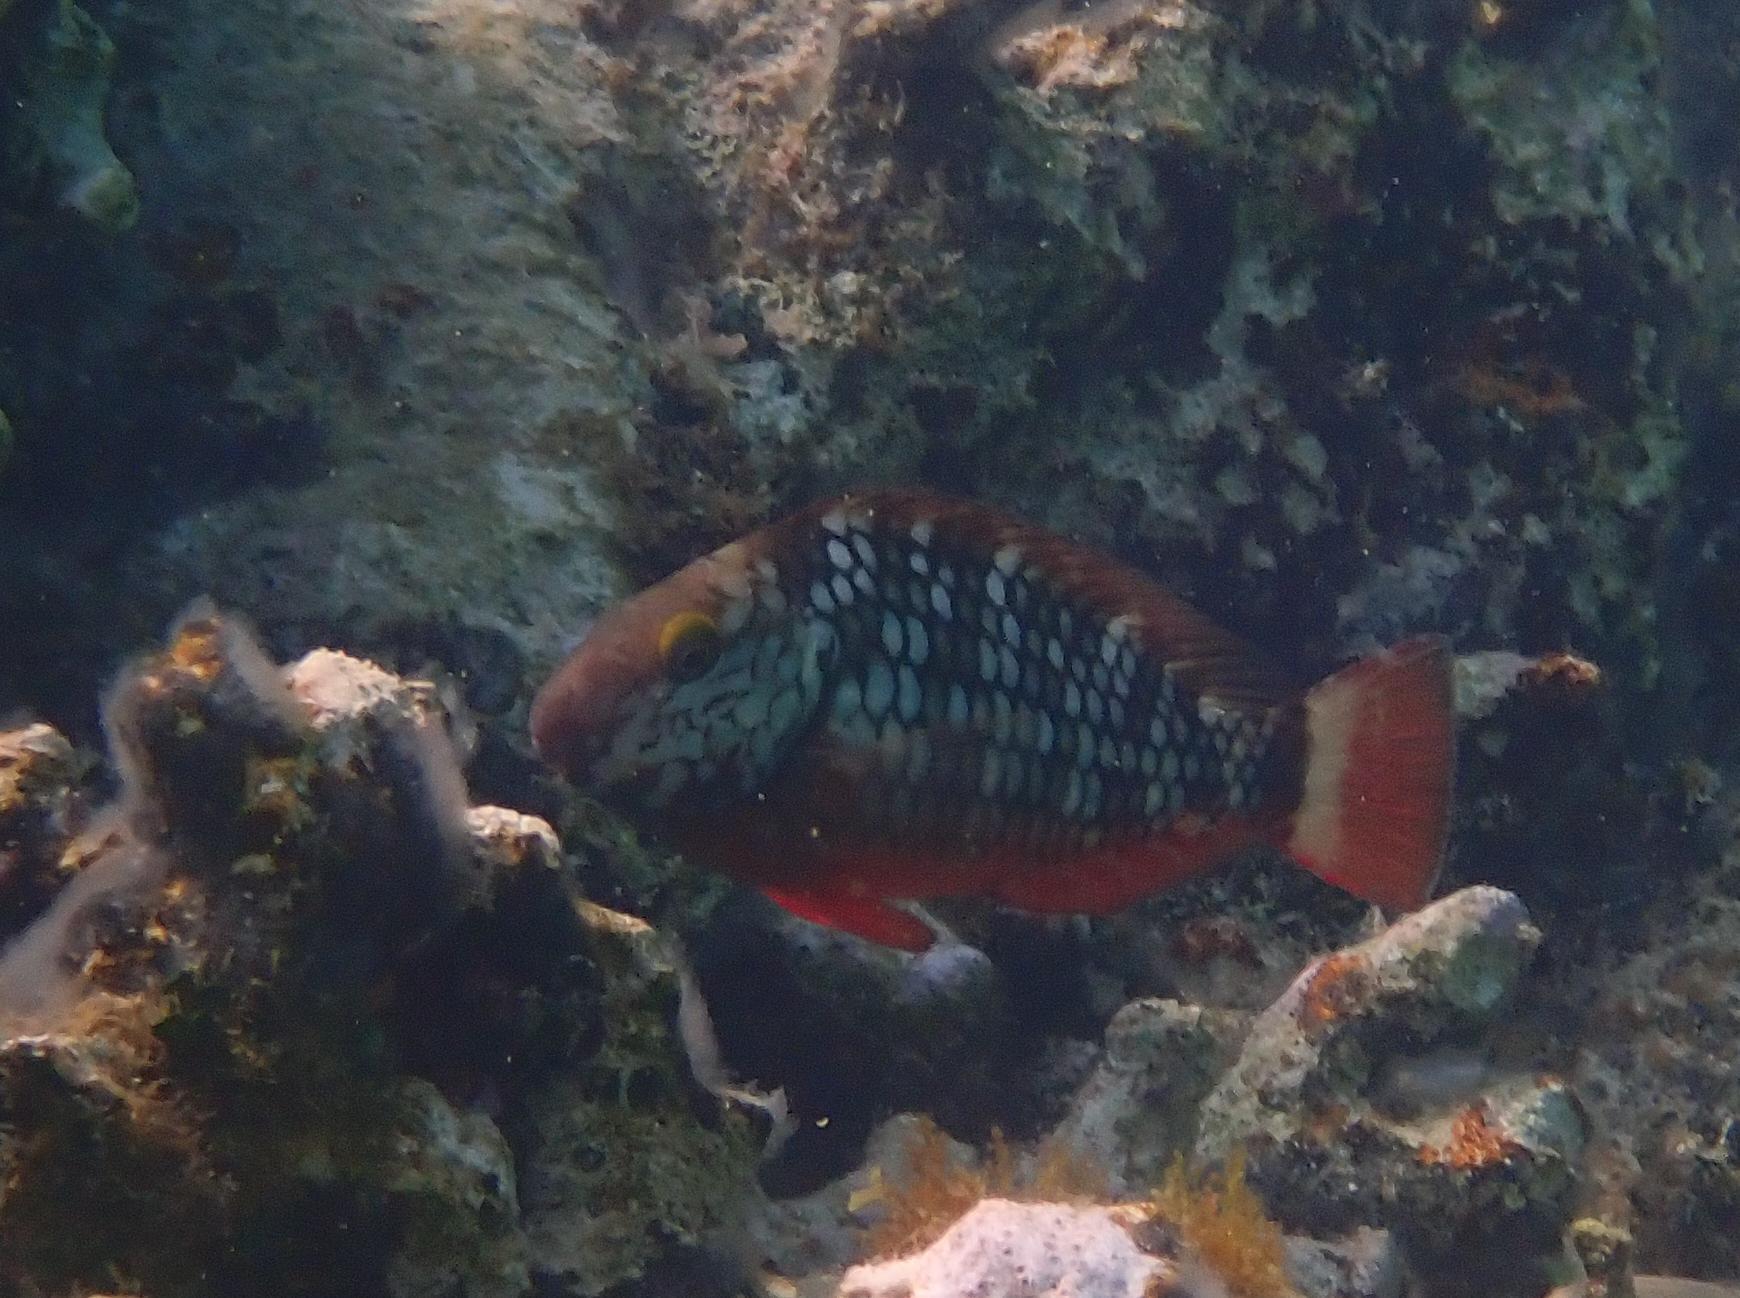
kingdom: Animalia
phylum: Chordata
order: Perciformes
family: Scaridae
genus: Sparisoma
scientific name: Sparisoma viride
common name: Stoplight parrotfish
